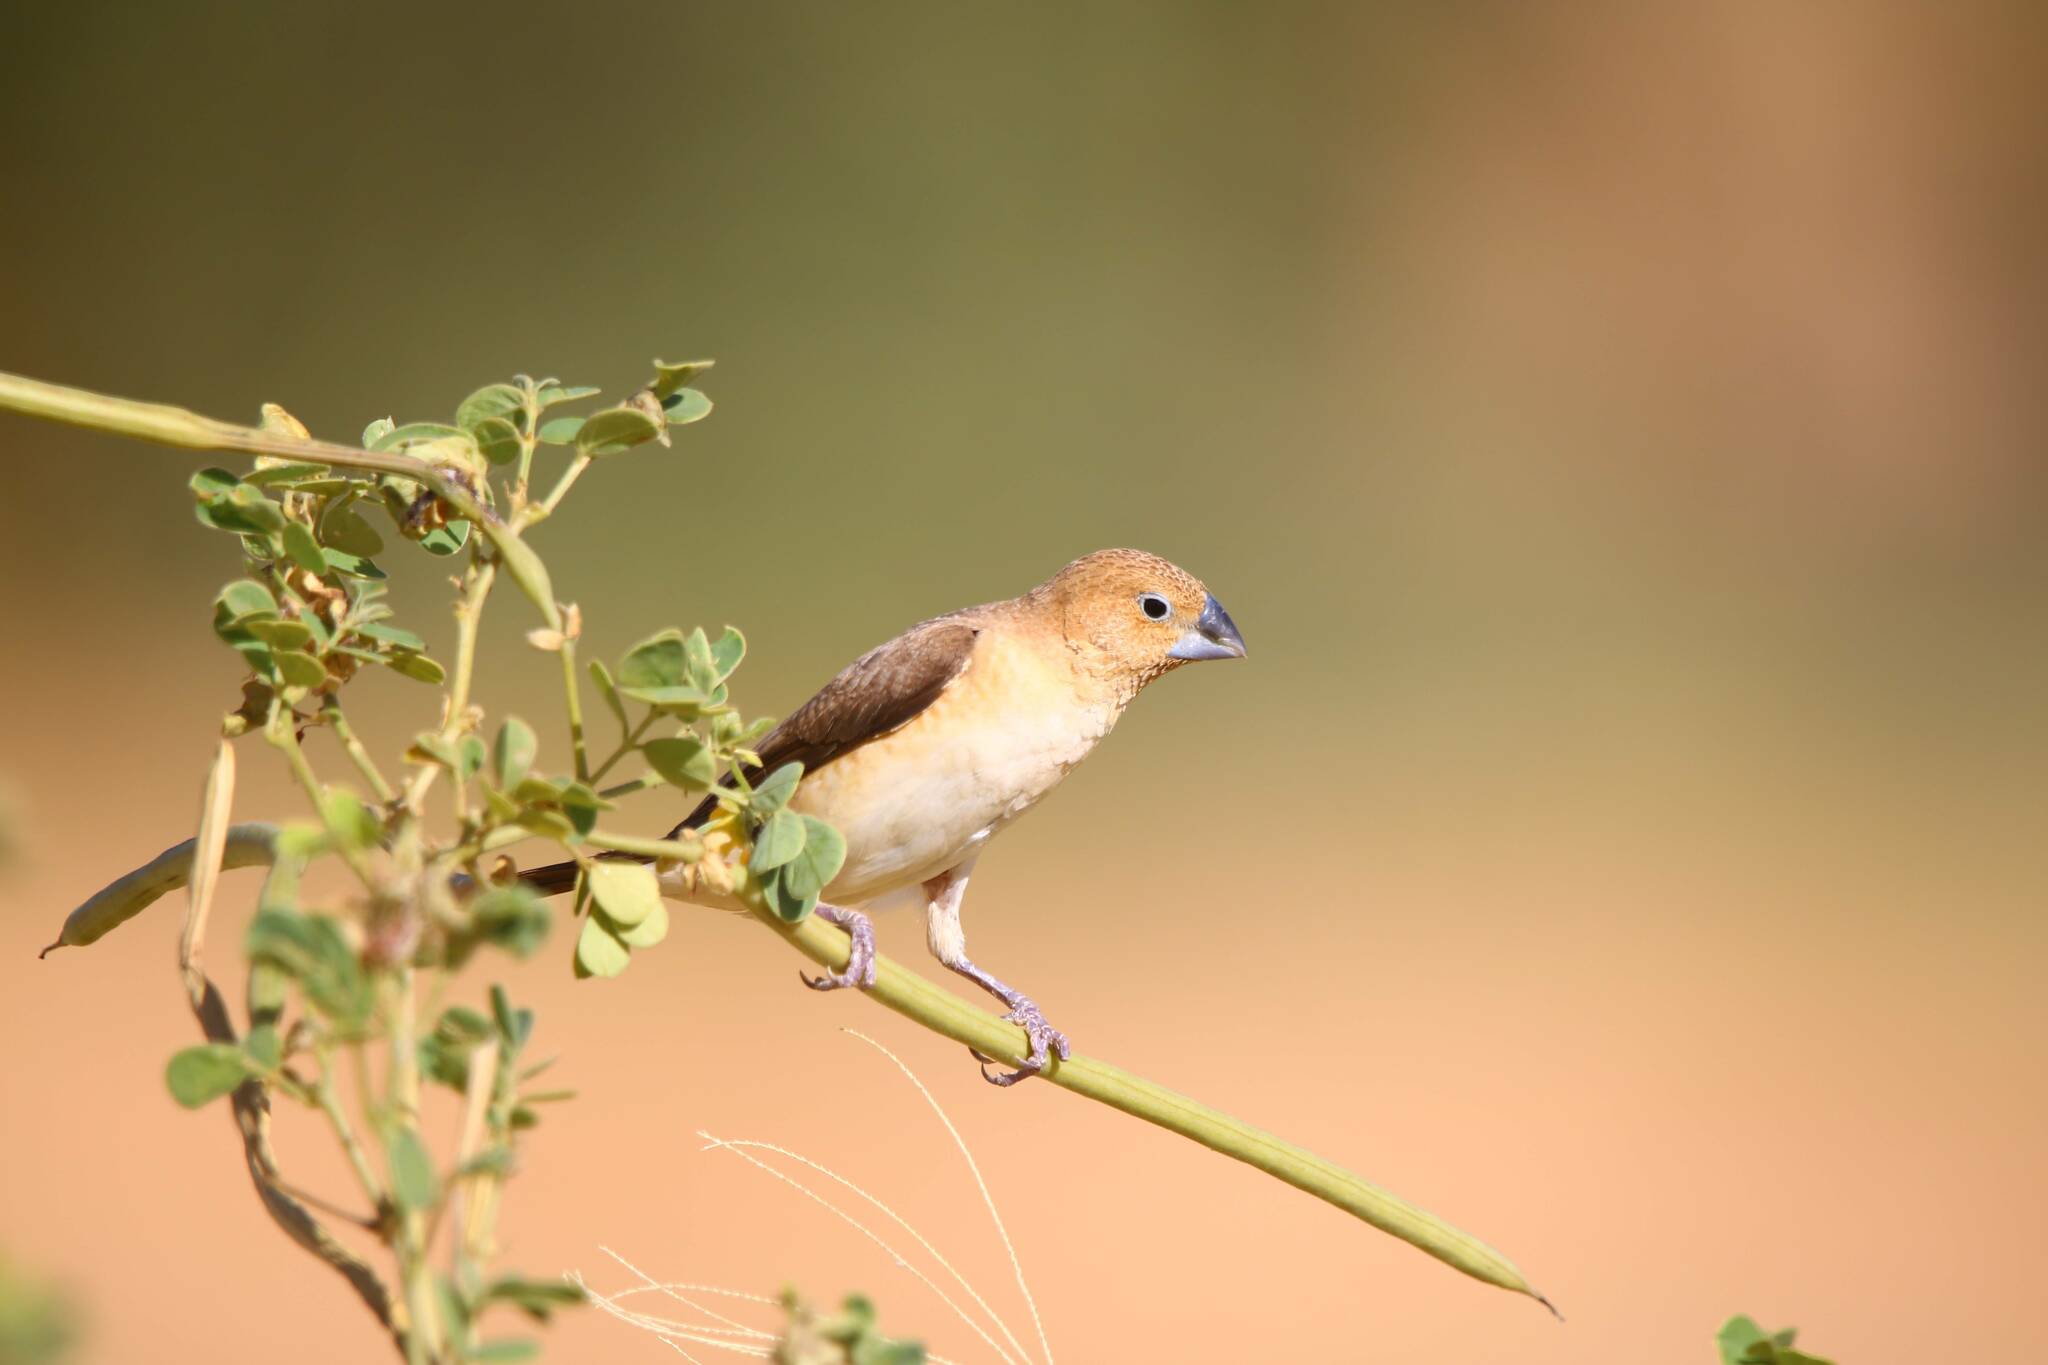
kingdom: Animalia
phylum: Chordata
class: Aves
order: Passeriformes
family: Estrildidae
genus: Euodice
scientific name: Euodice cantans
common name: African silverbill
